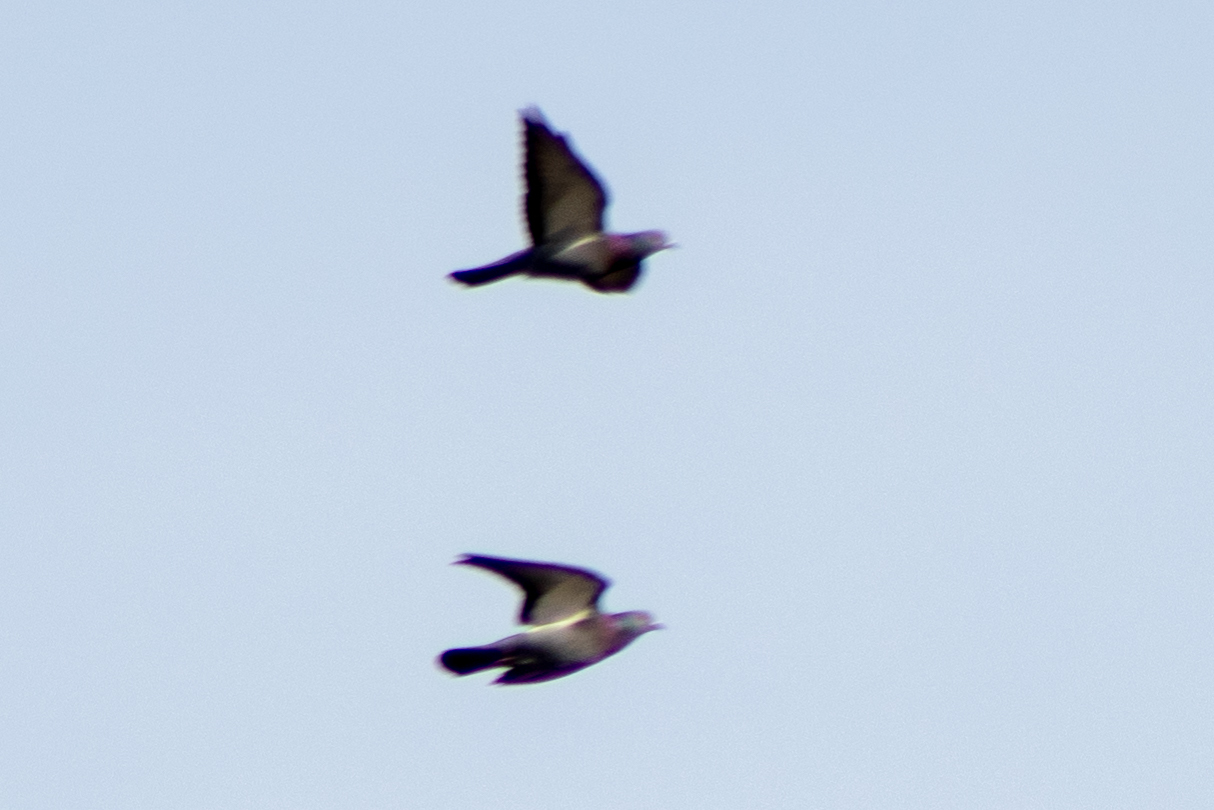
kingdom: Animalia
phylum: Chordata
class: Aves
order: Columbiformes
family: Columbidae
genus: Columba
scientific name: Columba livia
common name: Rock pigeon
